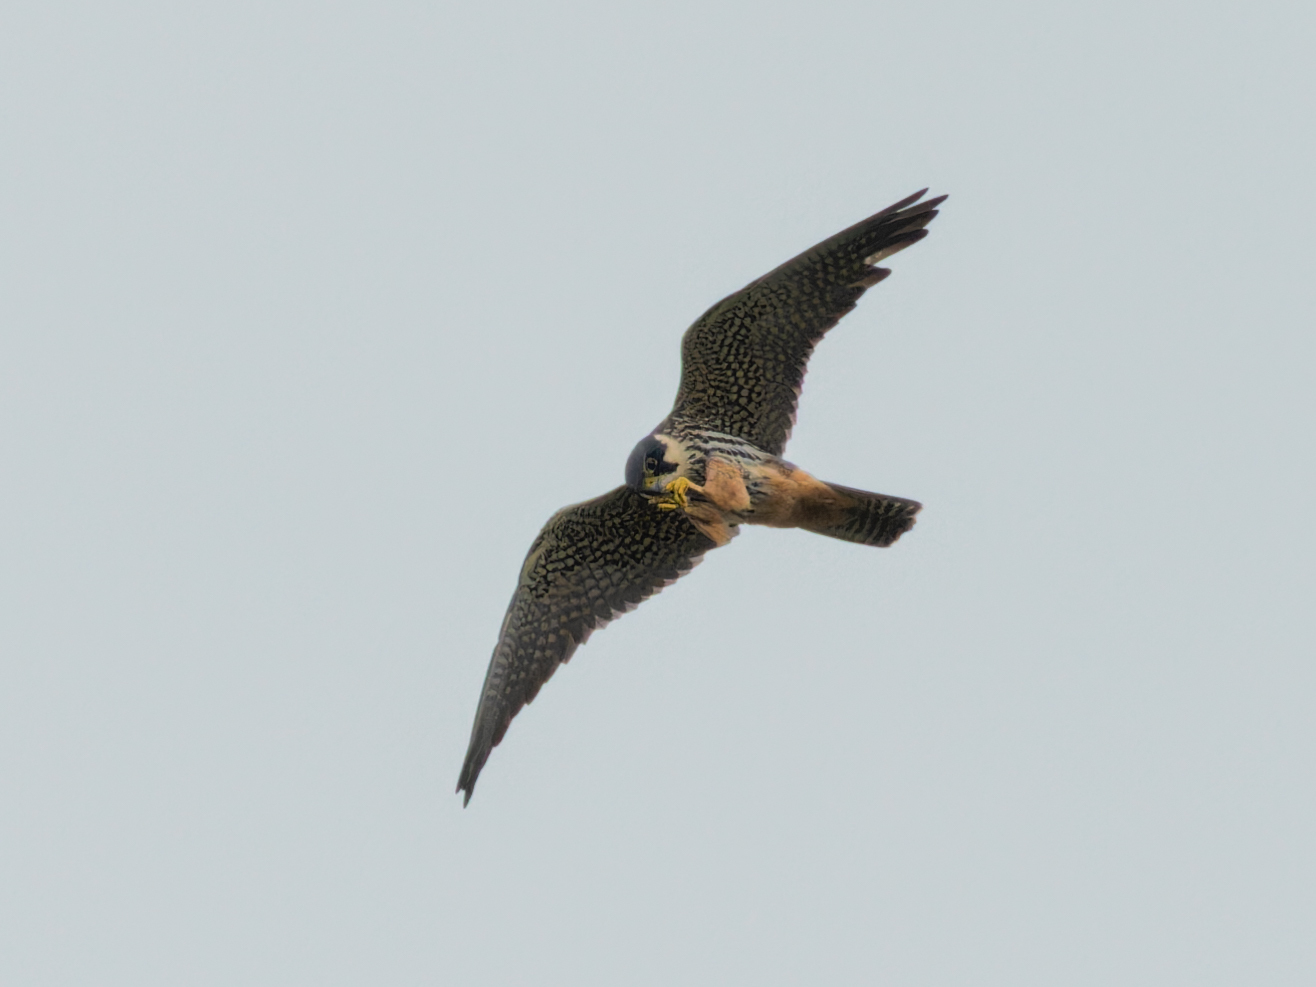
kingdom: Animalia
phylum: Chordata
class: Aves
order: Falconiformes
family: Falconidae
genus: Falco
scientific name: Falco subbuteo
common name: Eurasian hobby
